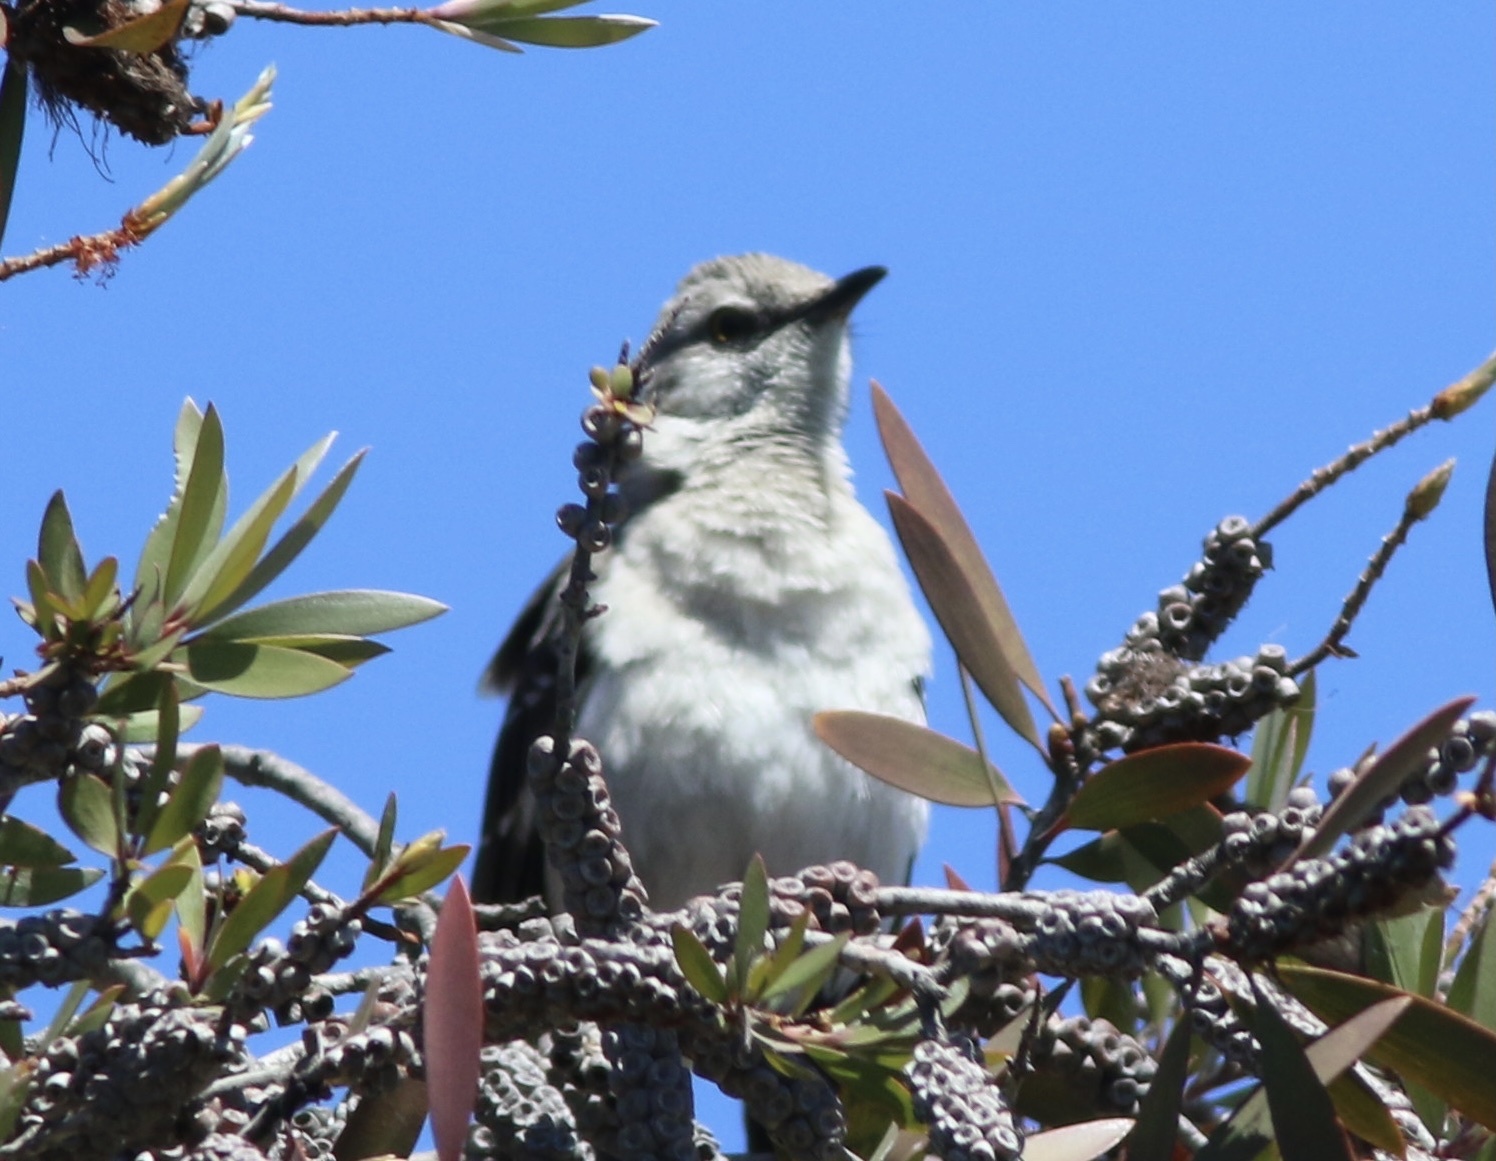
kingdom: Animalia
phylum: Chordata
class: Aves
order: Passeriformes
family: Mimidae
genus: Mimus
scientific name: Mimus polyglottos
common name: Northern mockingbird
